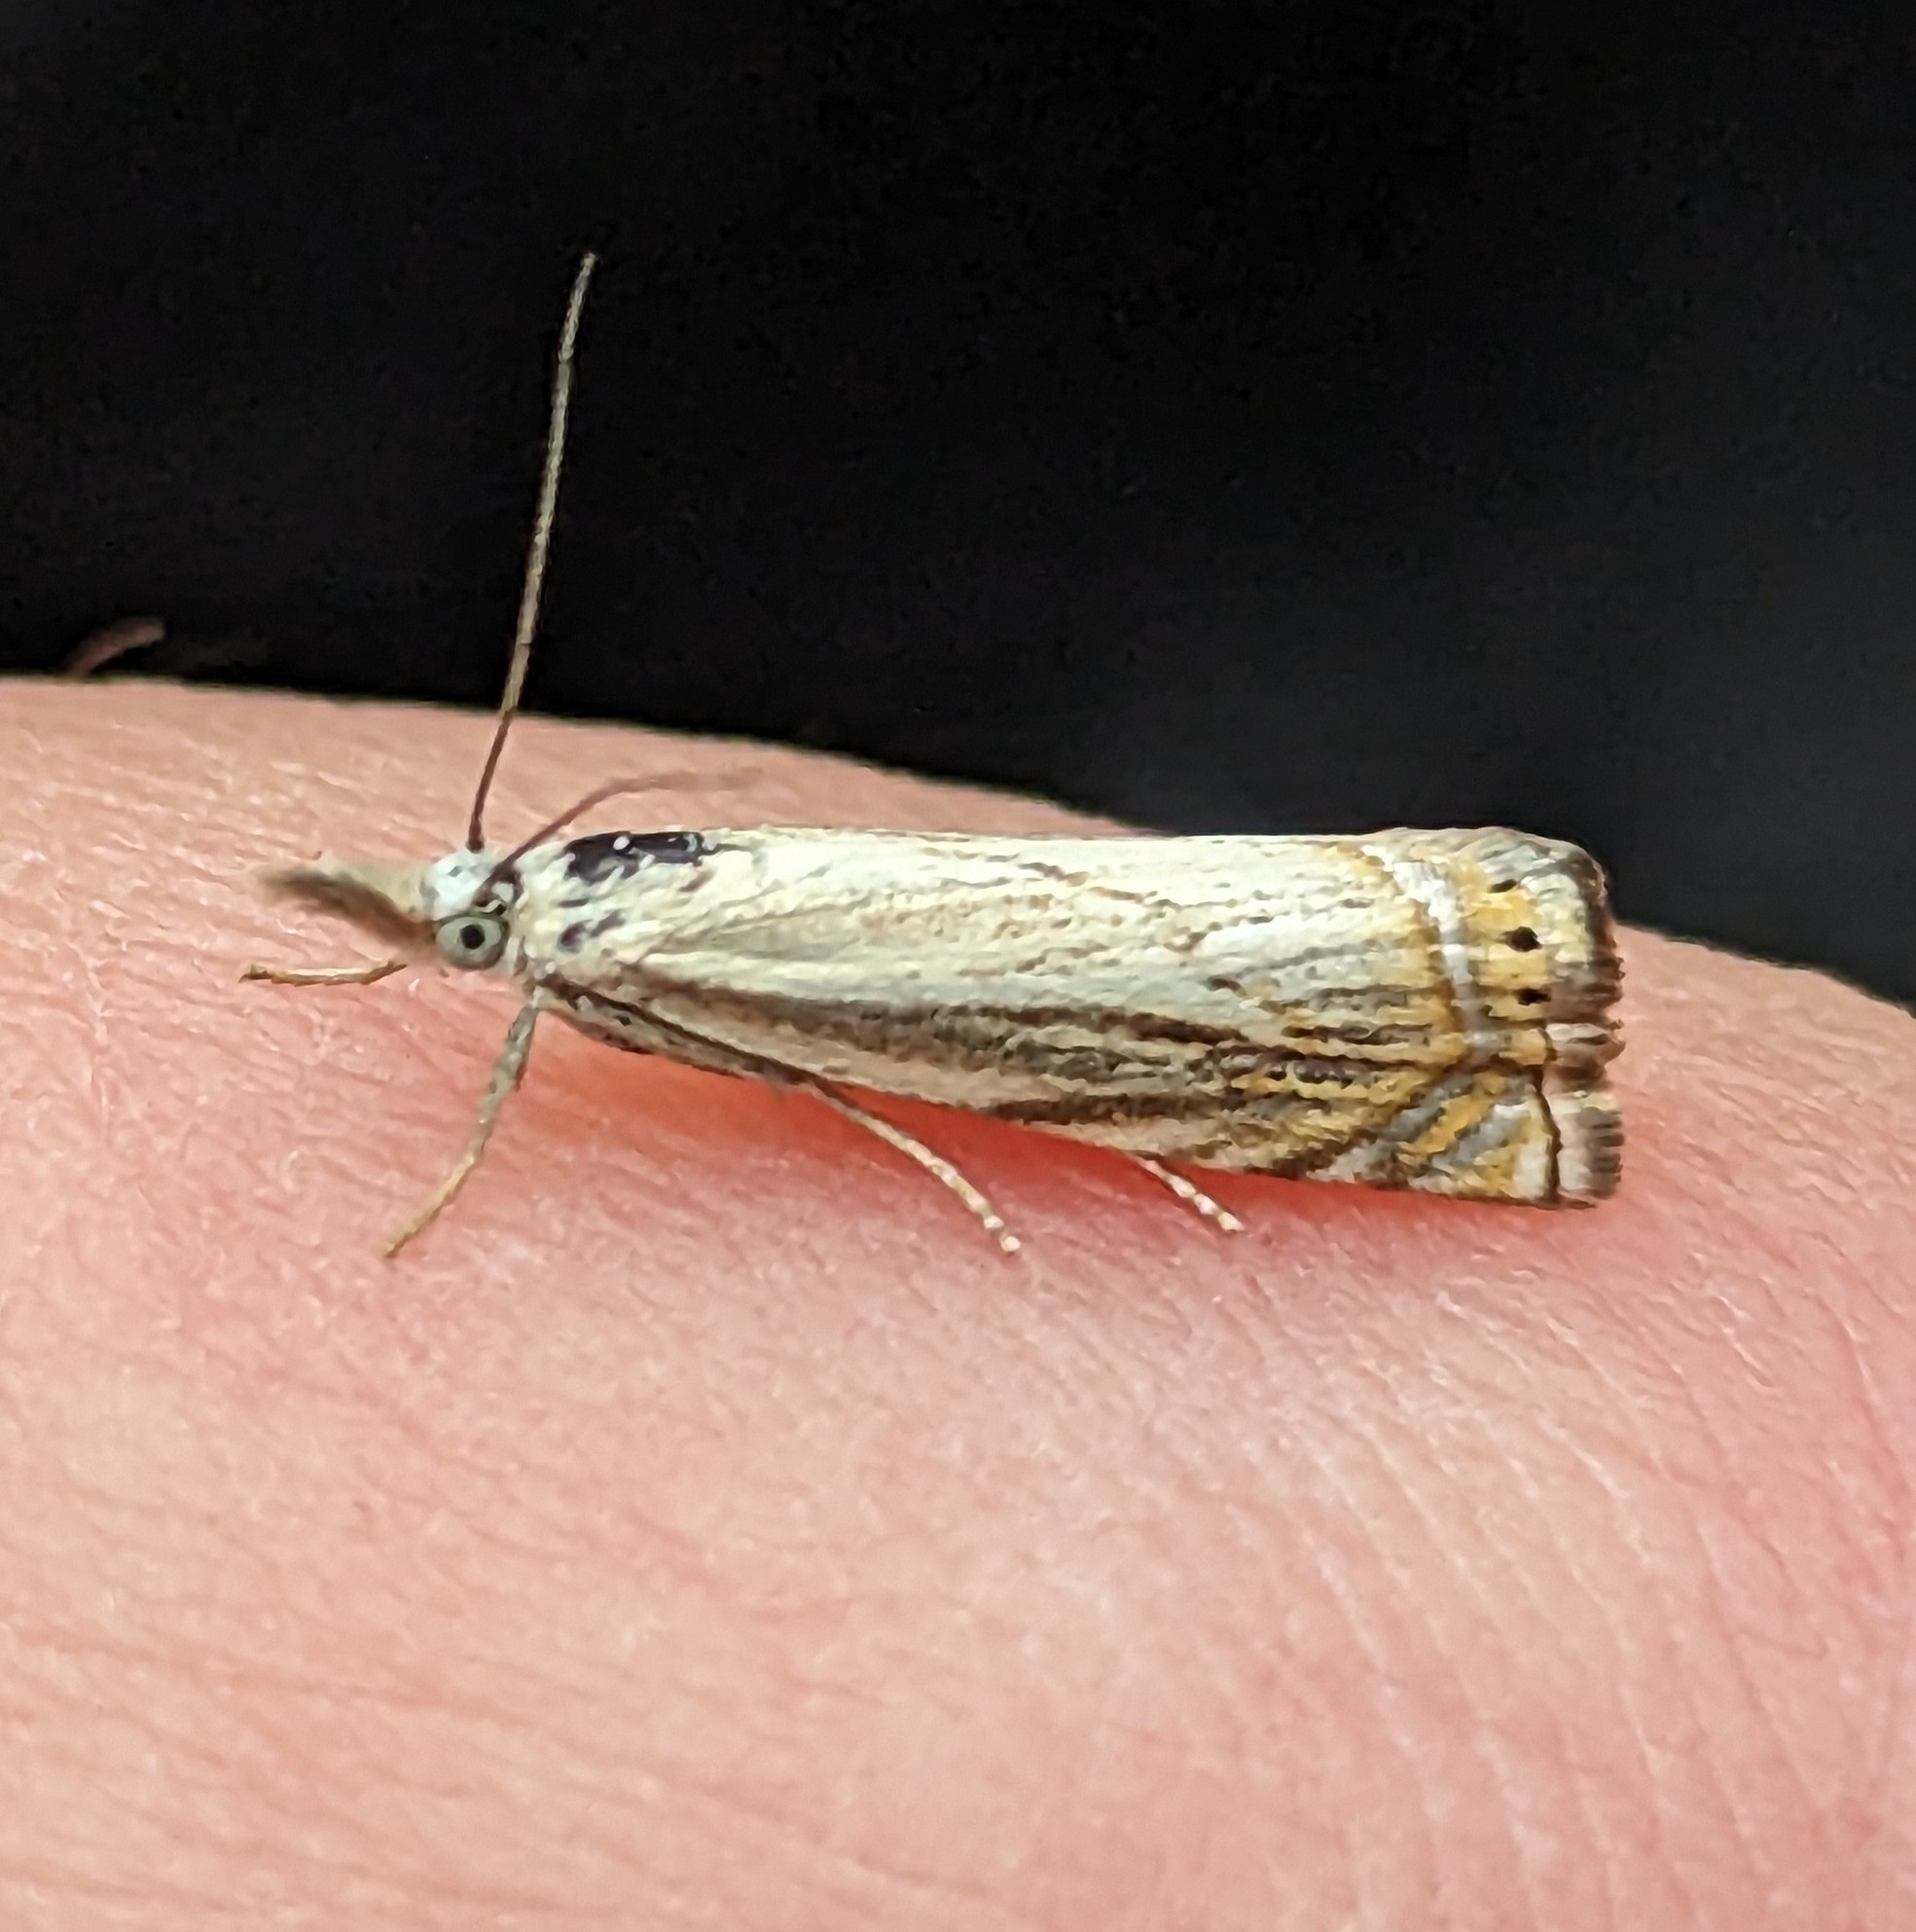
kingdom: Animalia
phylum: Arthropoda
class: Insecta
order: Lepidoptera
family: Crambidae
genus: Chrysoteuchia
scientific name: Chrysoteuchia topiarius
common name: Topiary grass-veneer
